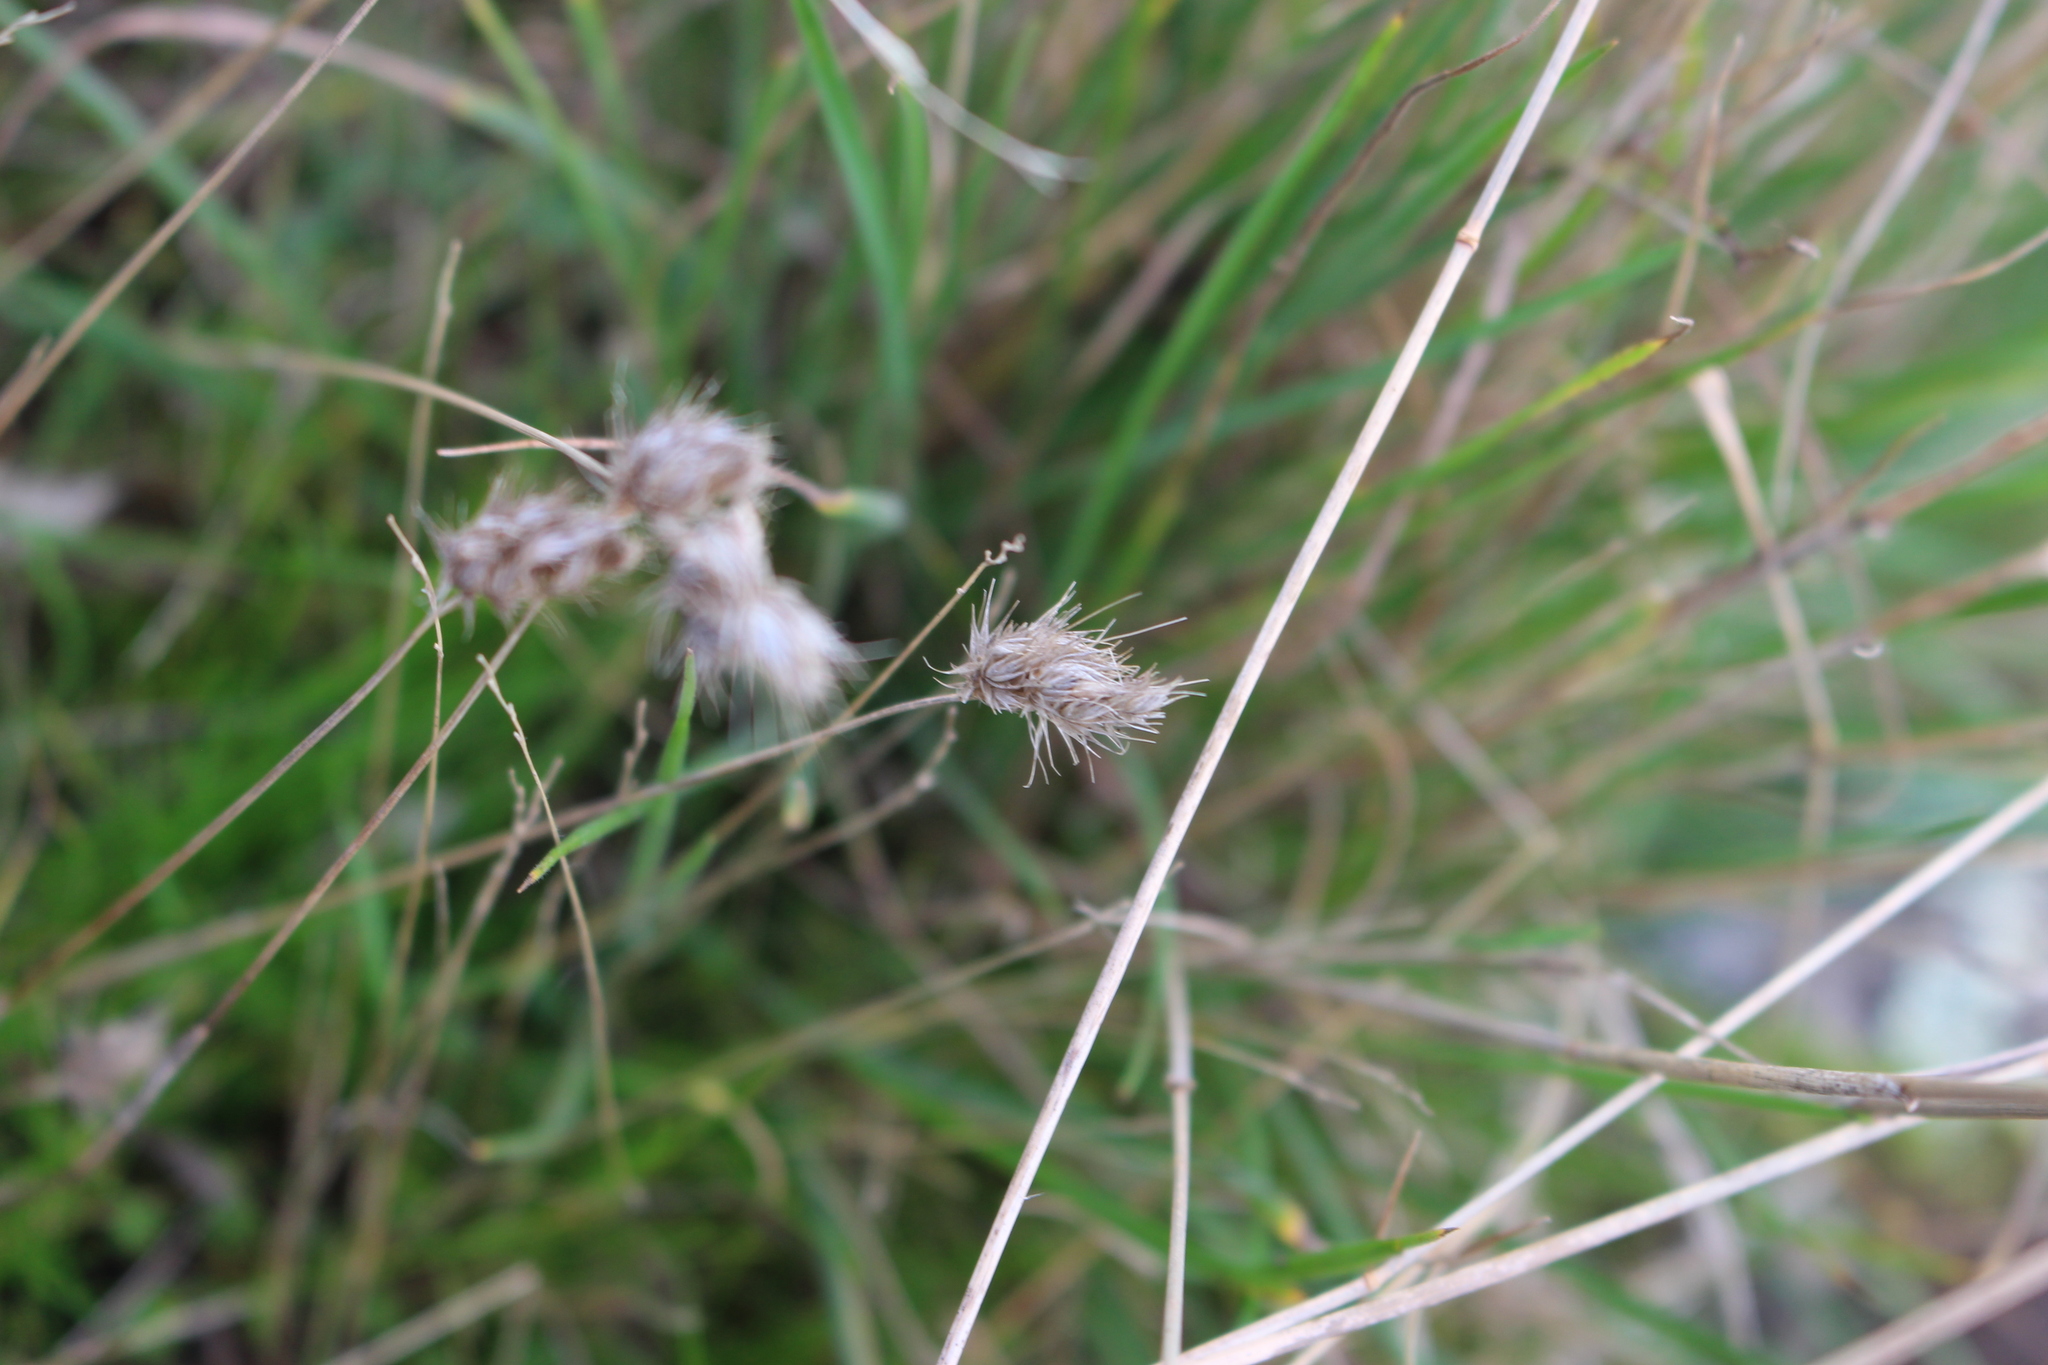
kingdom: Plantae
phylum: Tracheophyta
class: Liliopsida
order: Poales
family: Poaceae
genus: Cynosurus
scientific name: Cynosurus echinatus
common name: Rough dog's-tail
